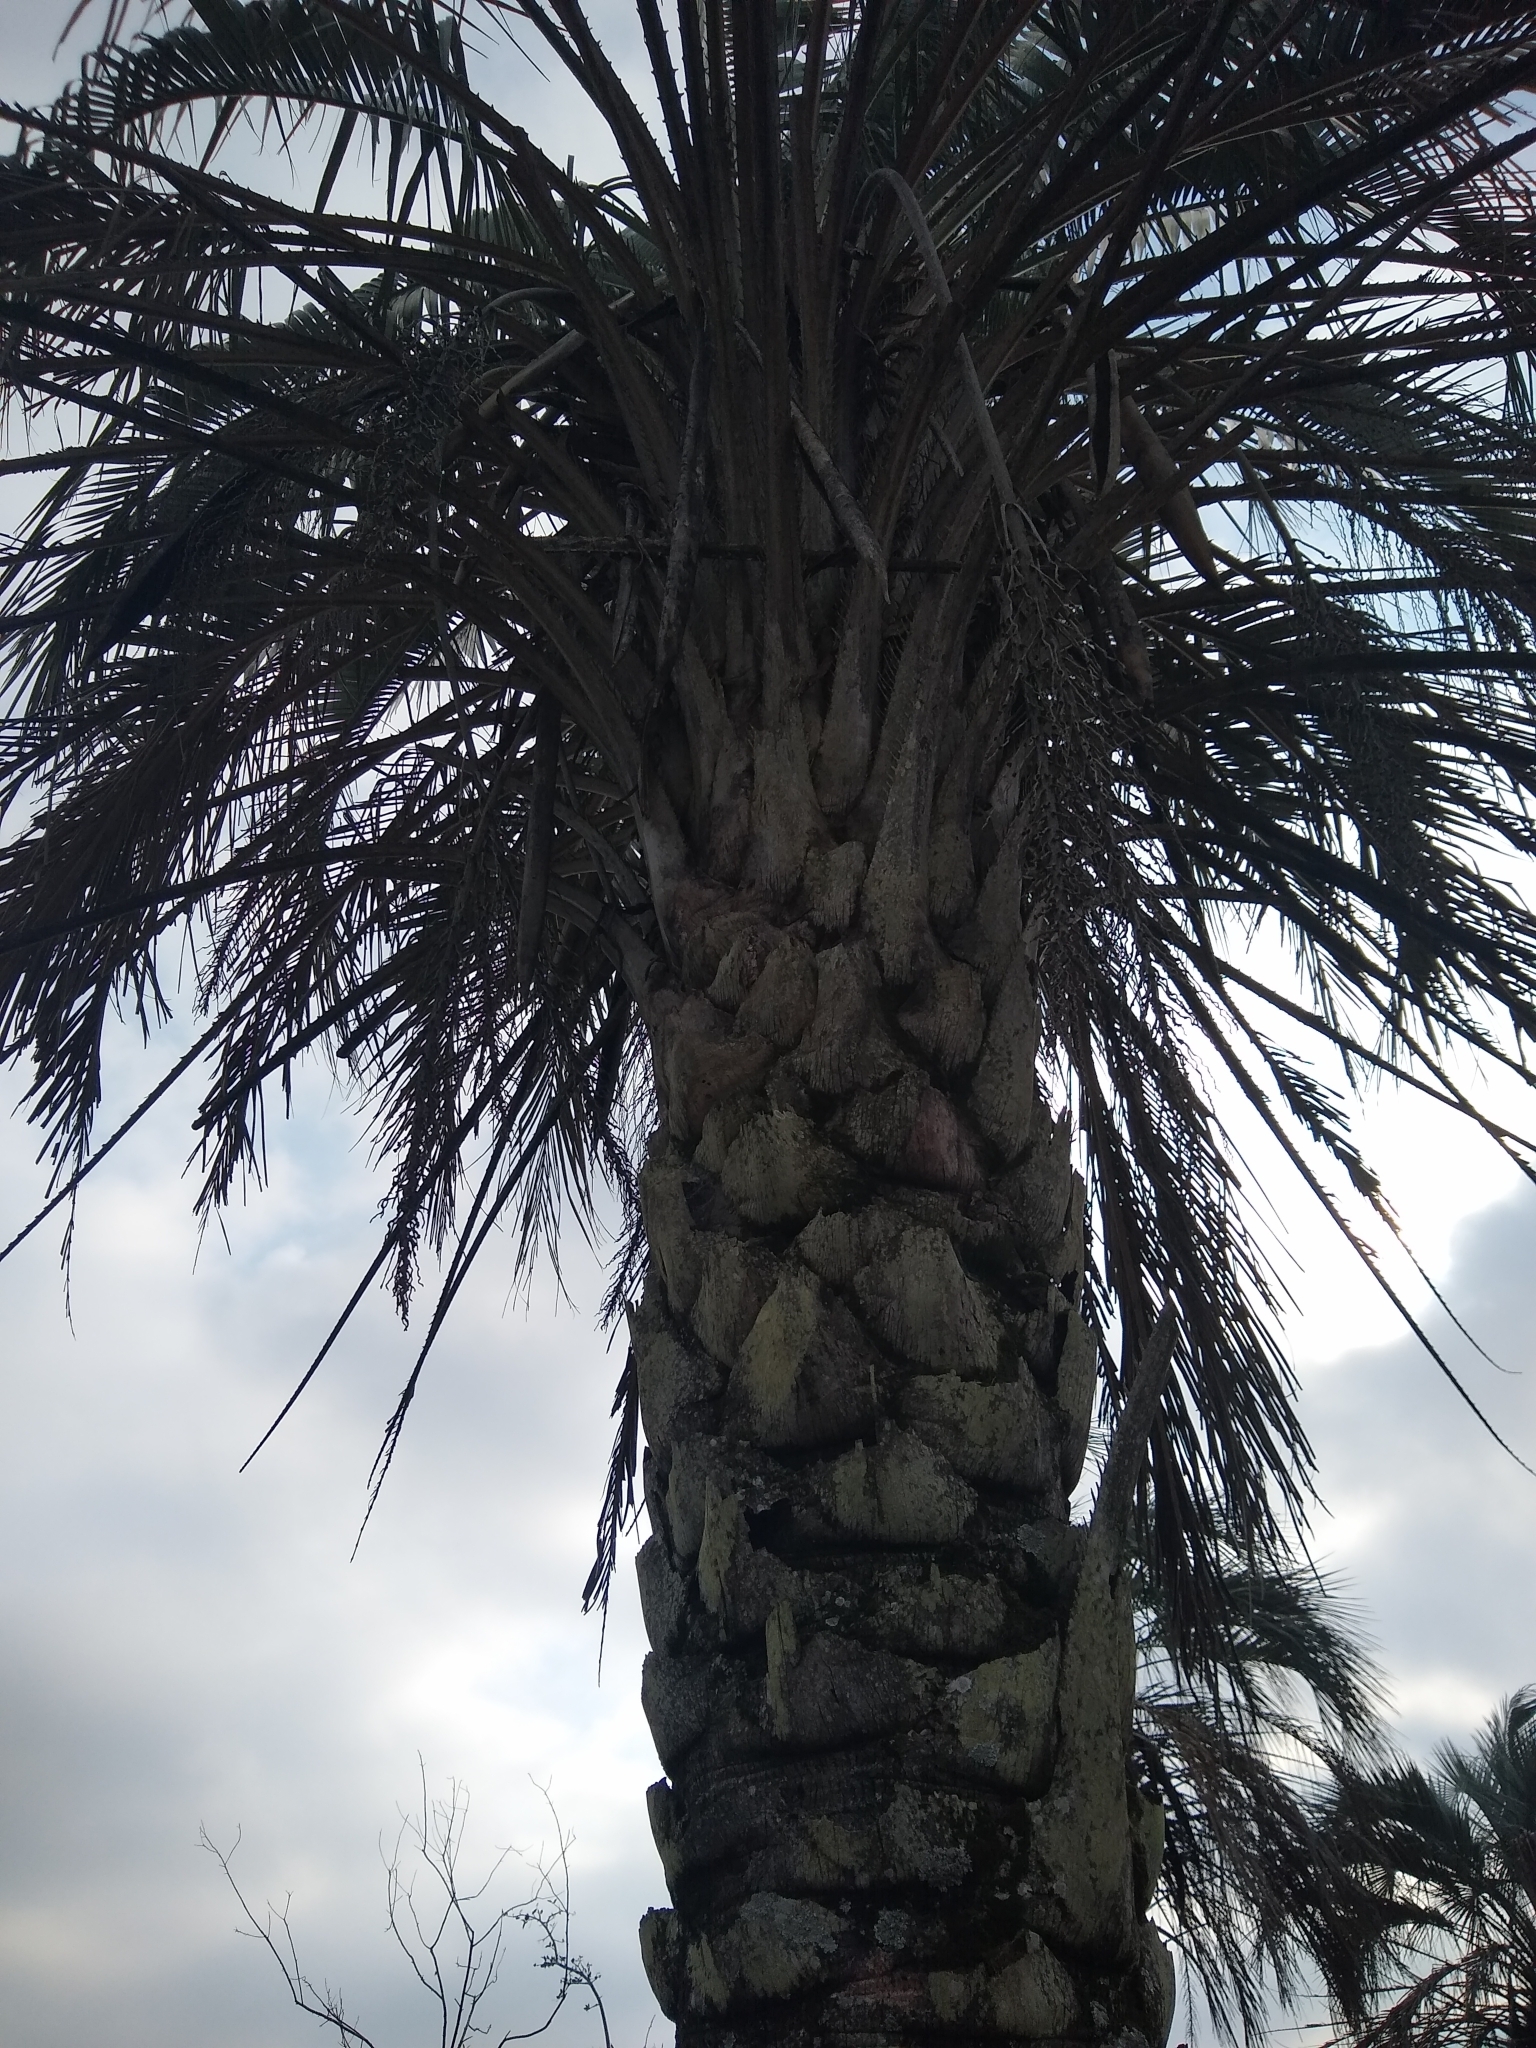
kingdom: Plantae
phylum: Tracheophyta
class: Liliopsida
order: Arecales
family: Arecaceae
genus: Butia
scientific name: Butia yatay
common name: Yatay palm
